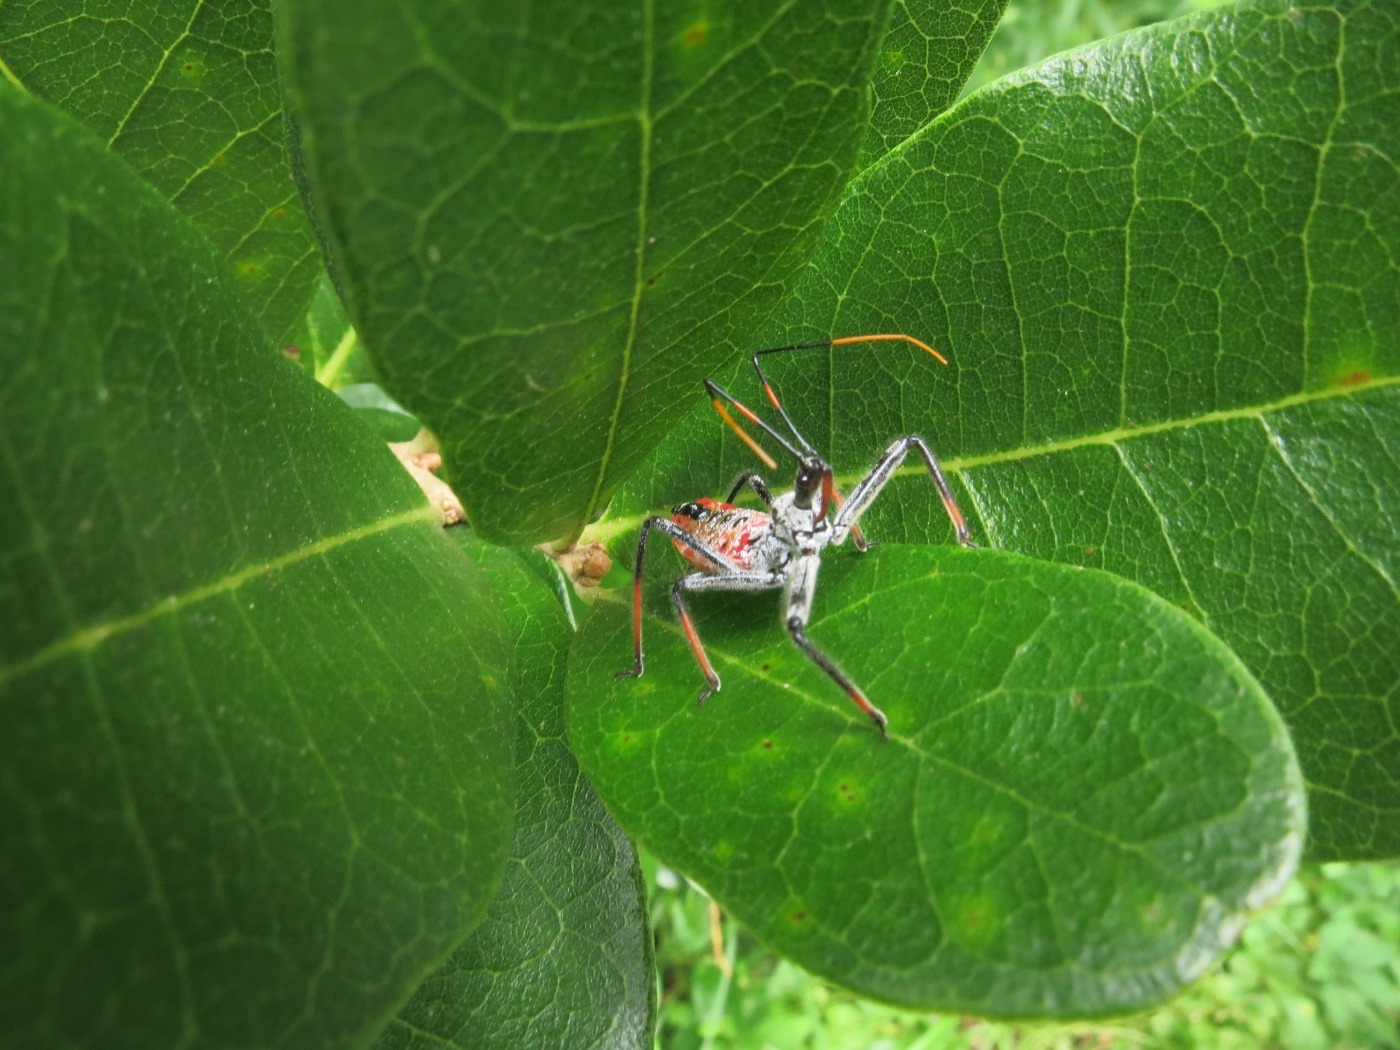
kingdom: Animalia
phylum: Arthropoda
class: Insecta
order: Hemiptera
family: Reduviidae
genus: Arilus
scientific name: Arilus cristatus
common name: North american wheel bug
